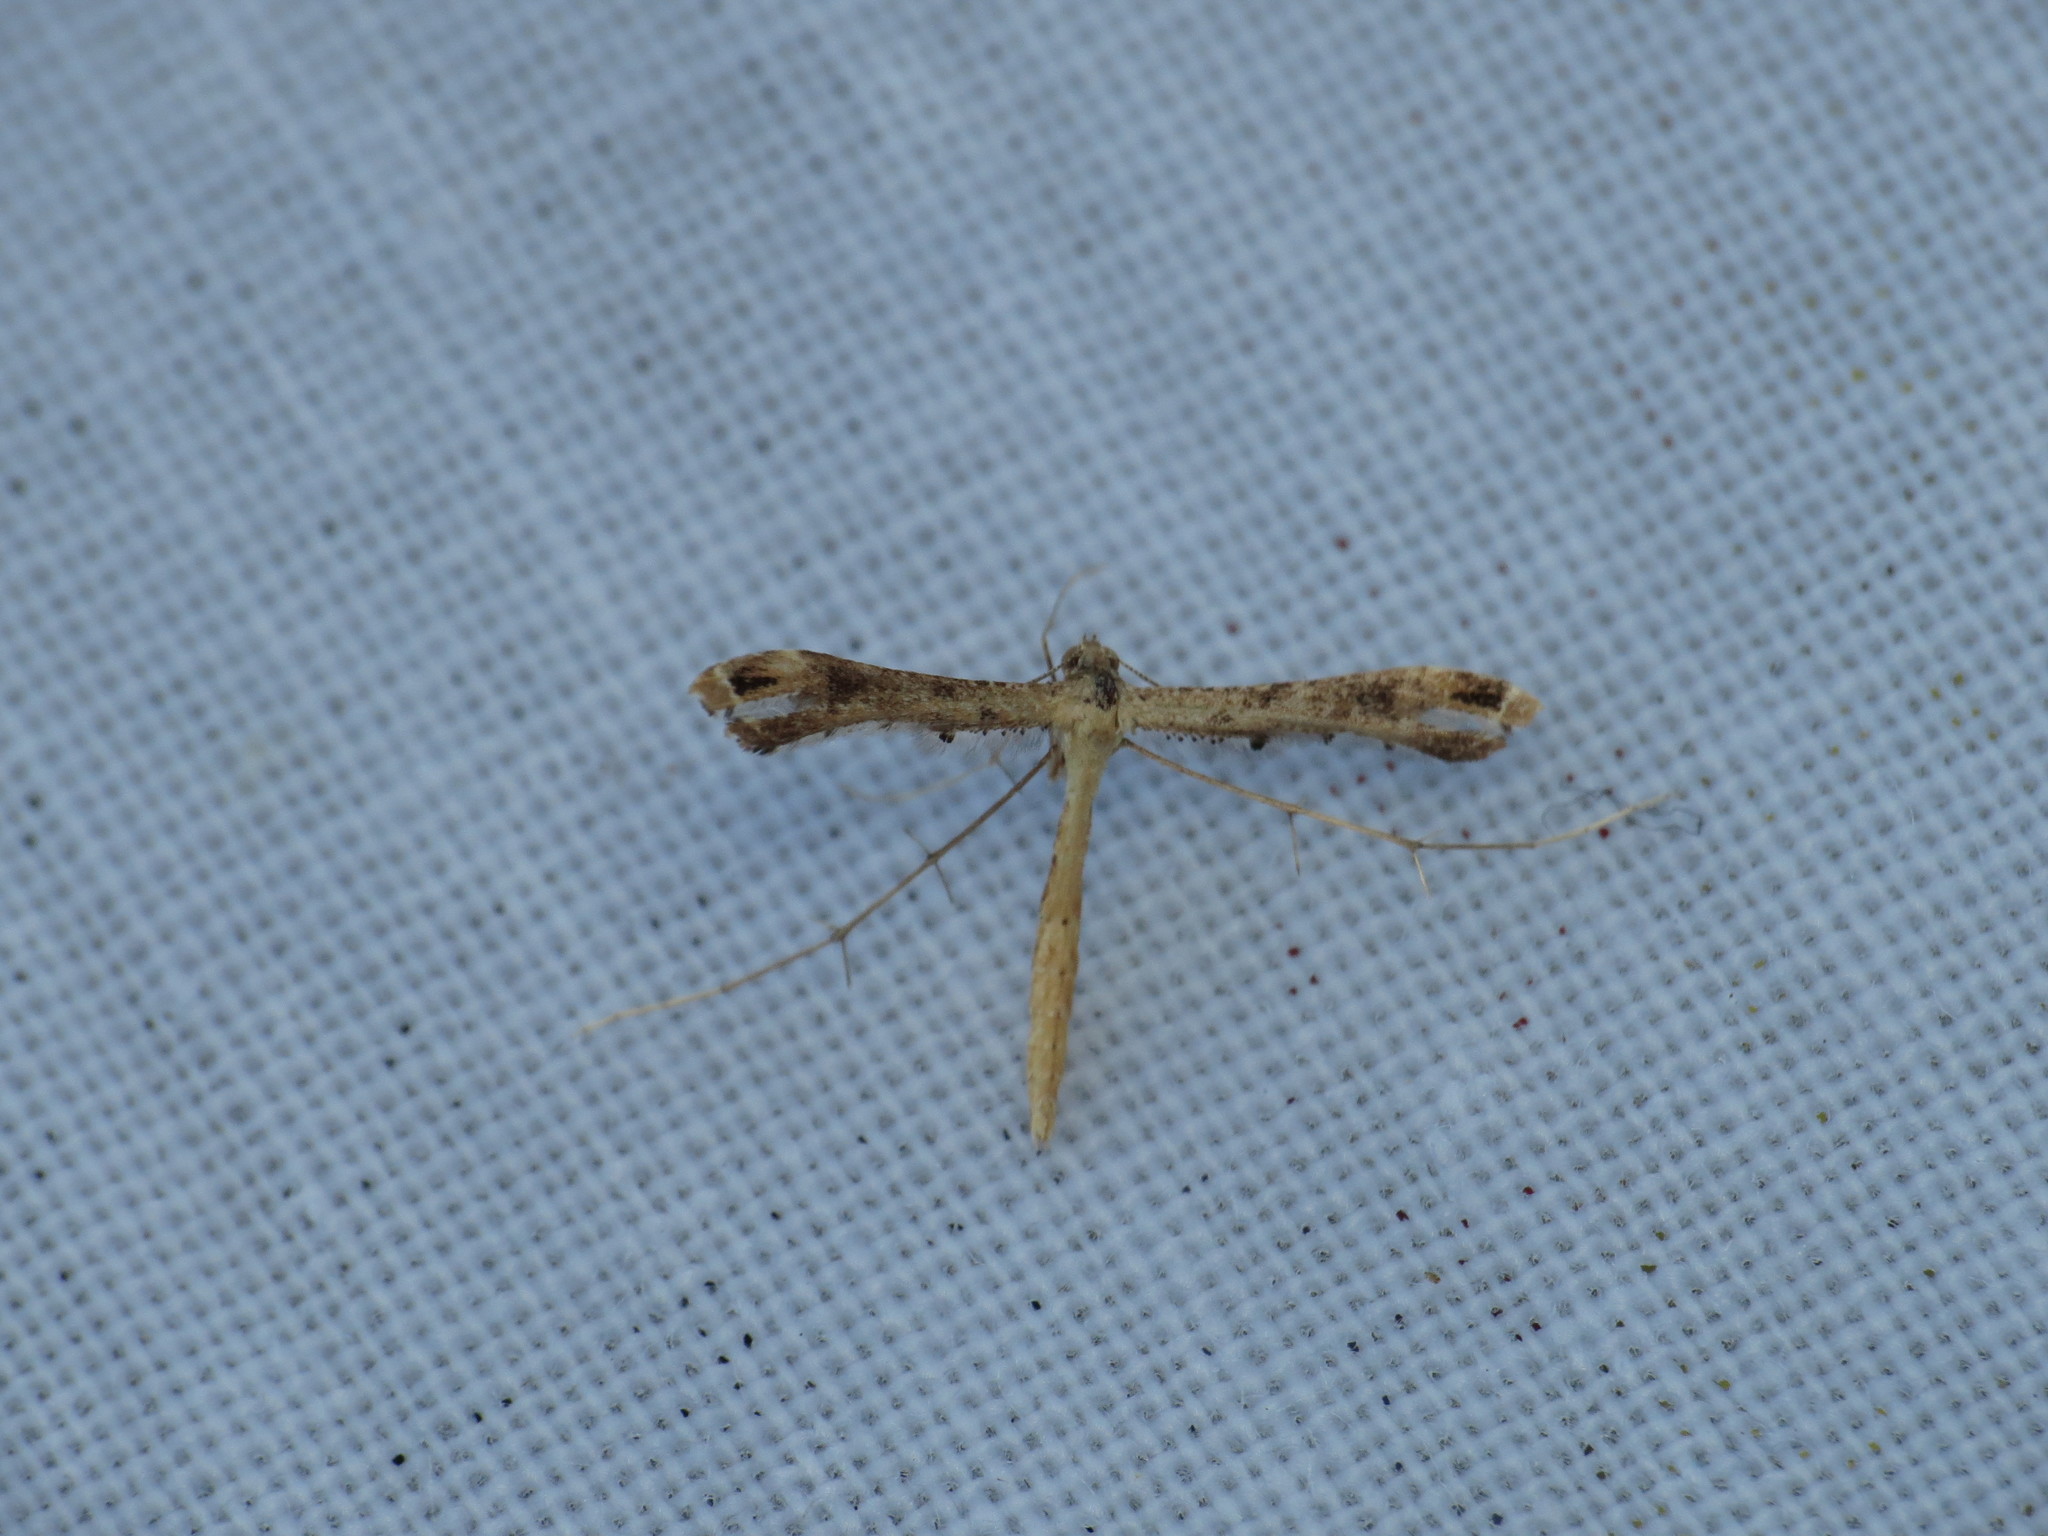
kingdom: Animalia
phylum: Arthropoda
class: Insecta
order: Lepidoptera
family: Pterophoridae
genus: Stenoptilodes
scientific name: Stenoptilodes brevipennis
